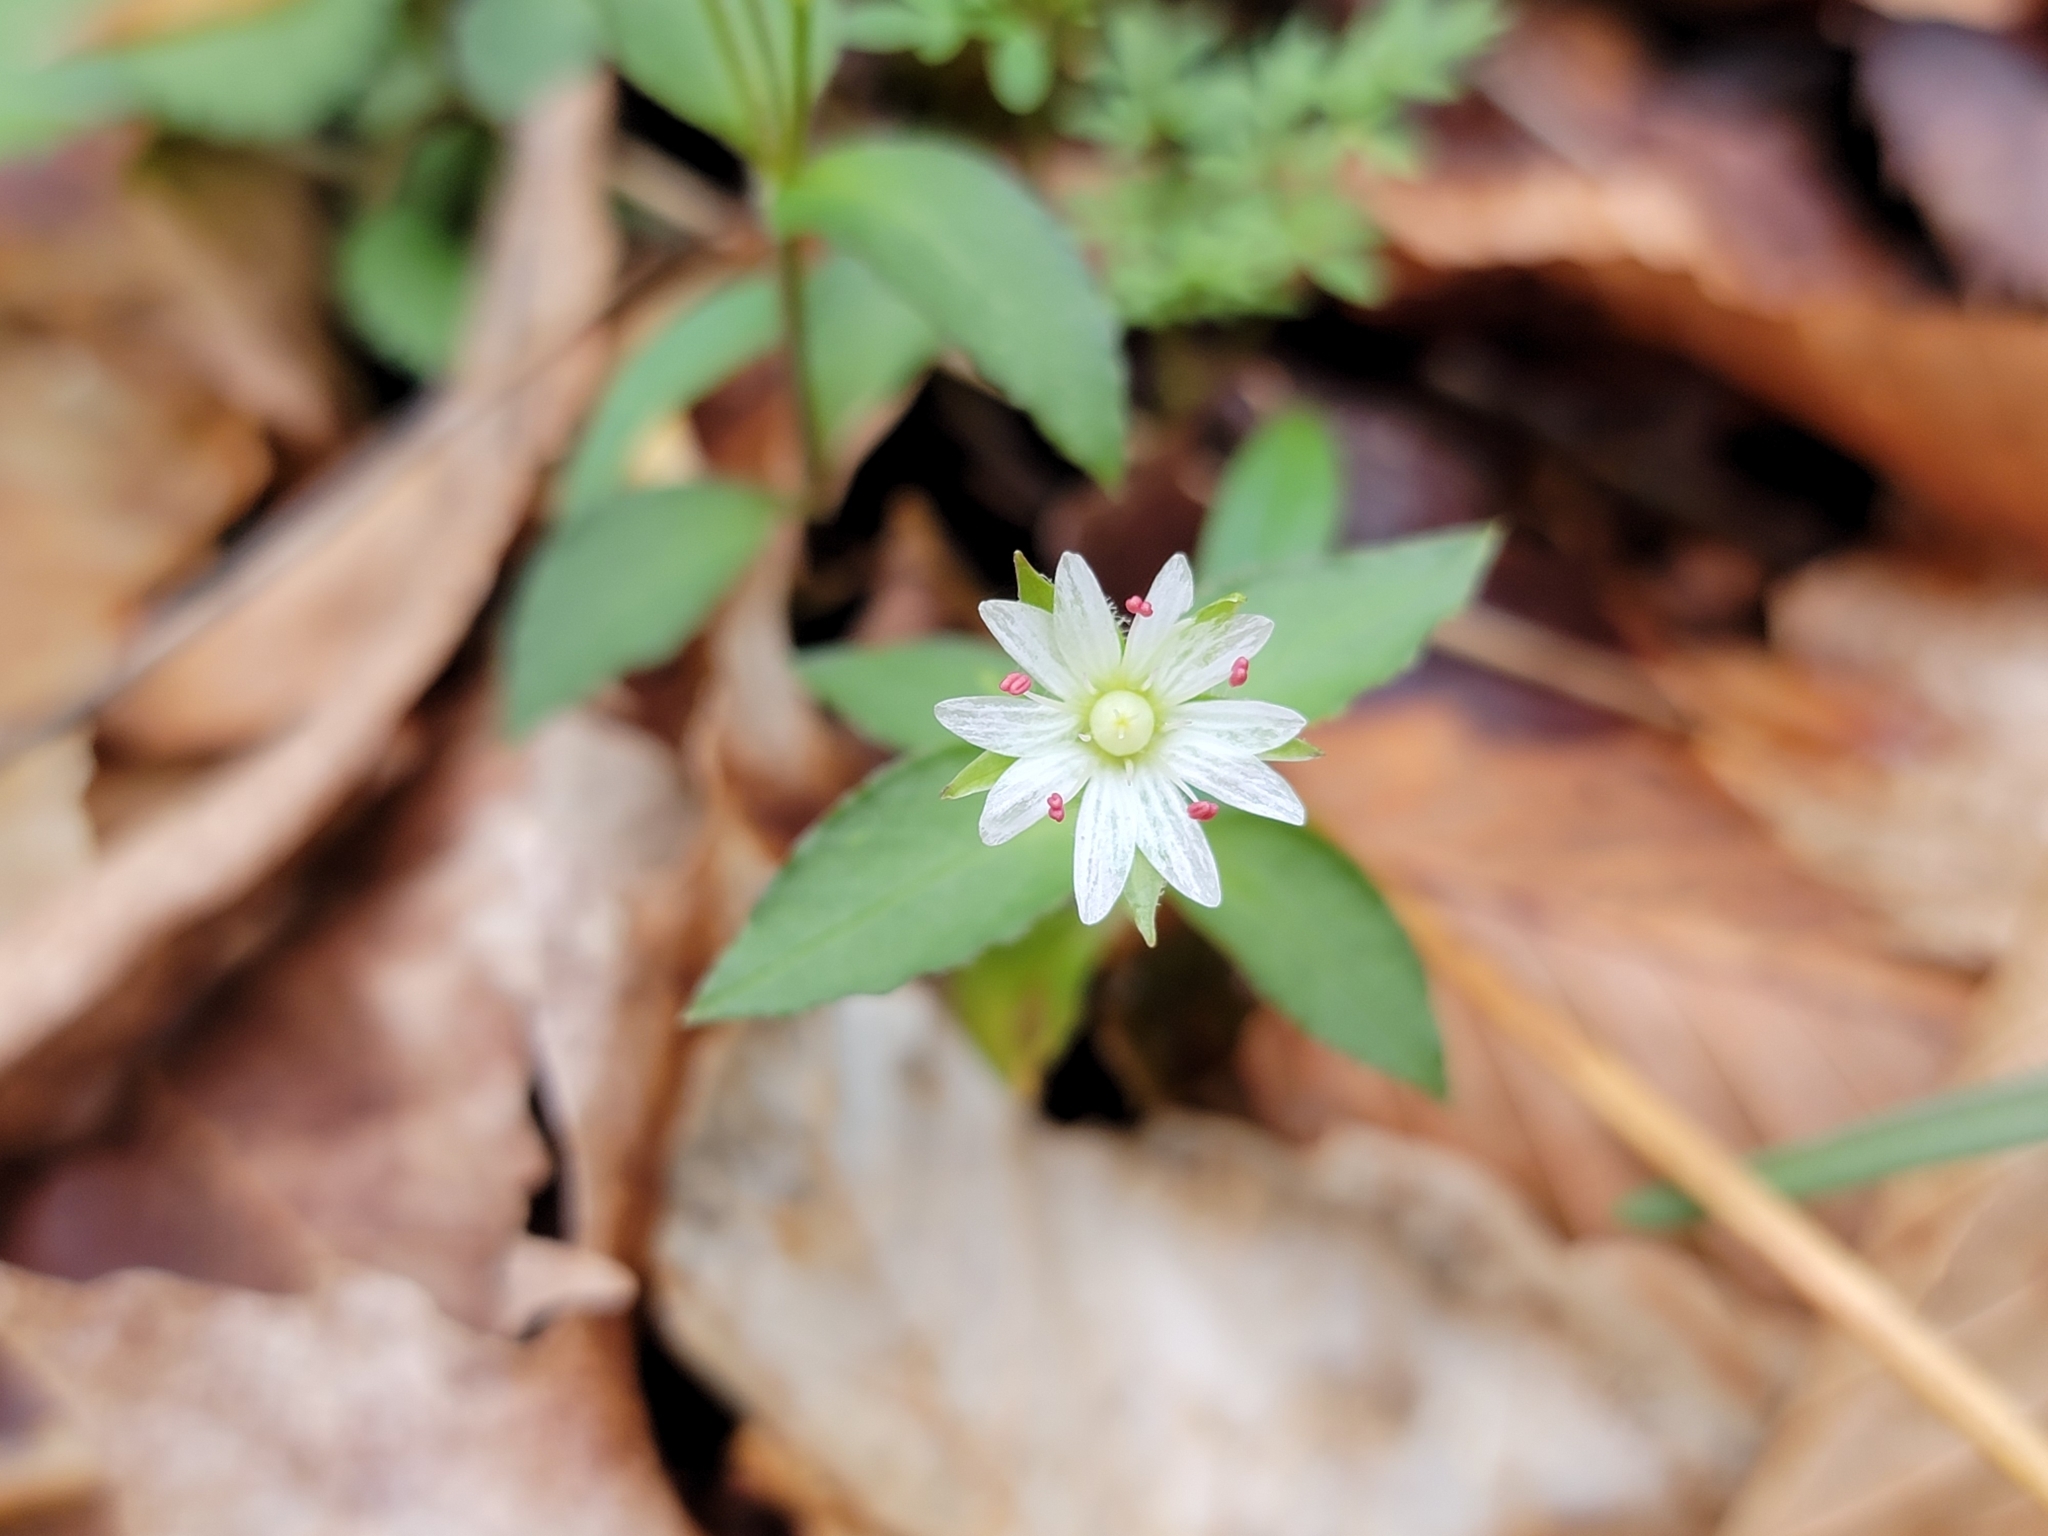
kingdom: Plantae
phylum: Tracheophyta
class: Magnoliopsida
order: Caryophyllales
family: Caryophyllaceae
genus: Stellaria
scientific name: Stellaria corei
